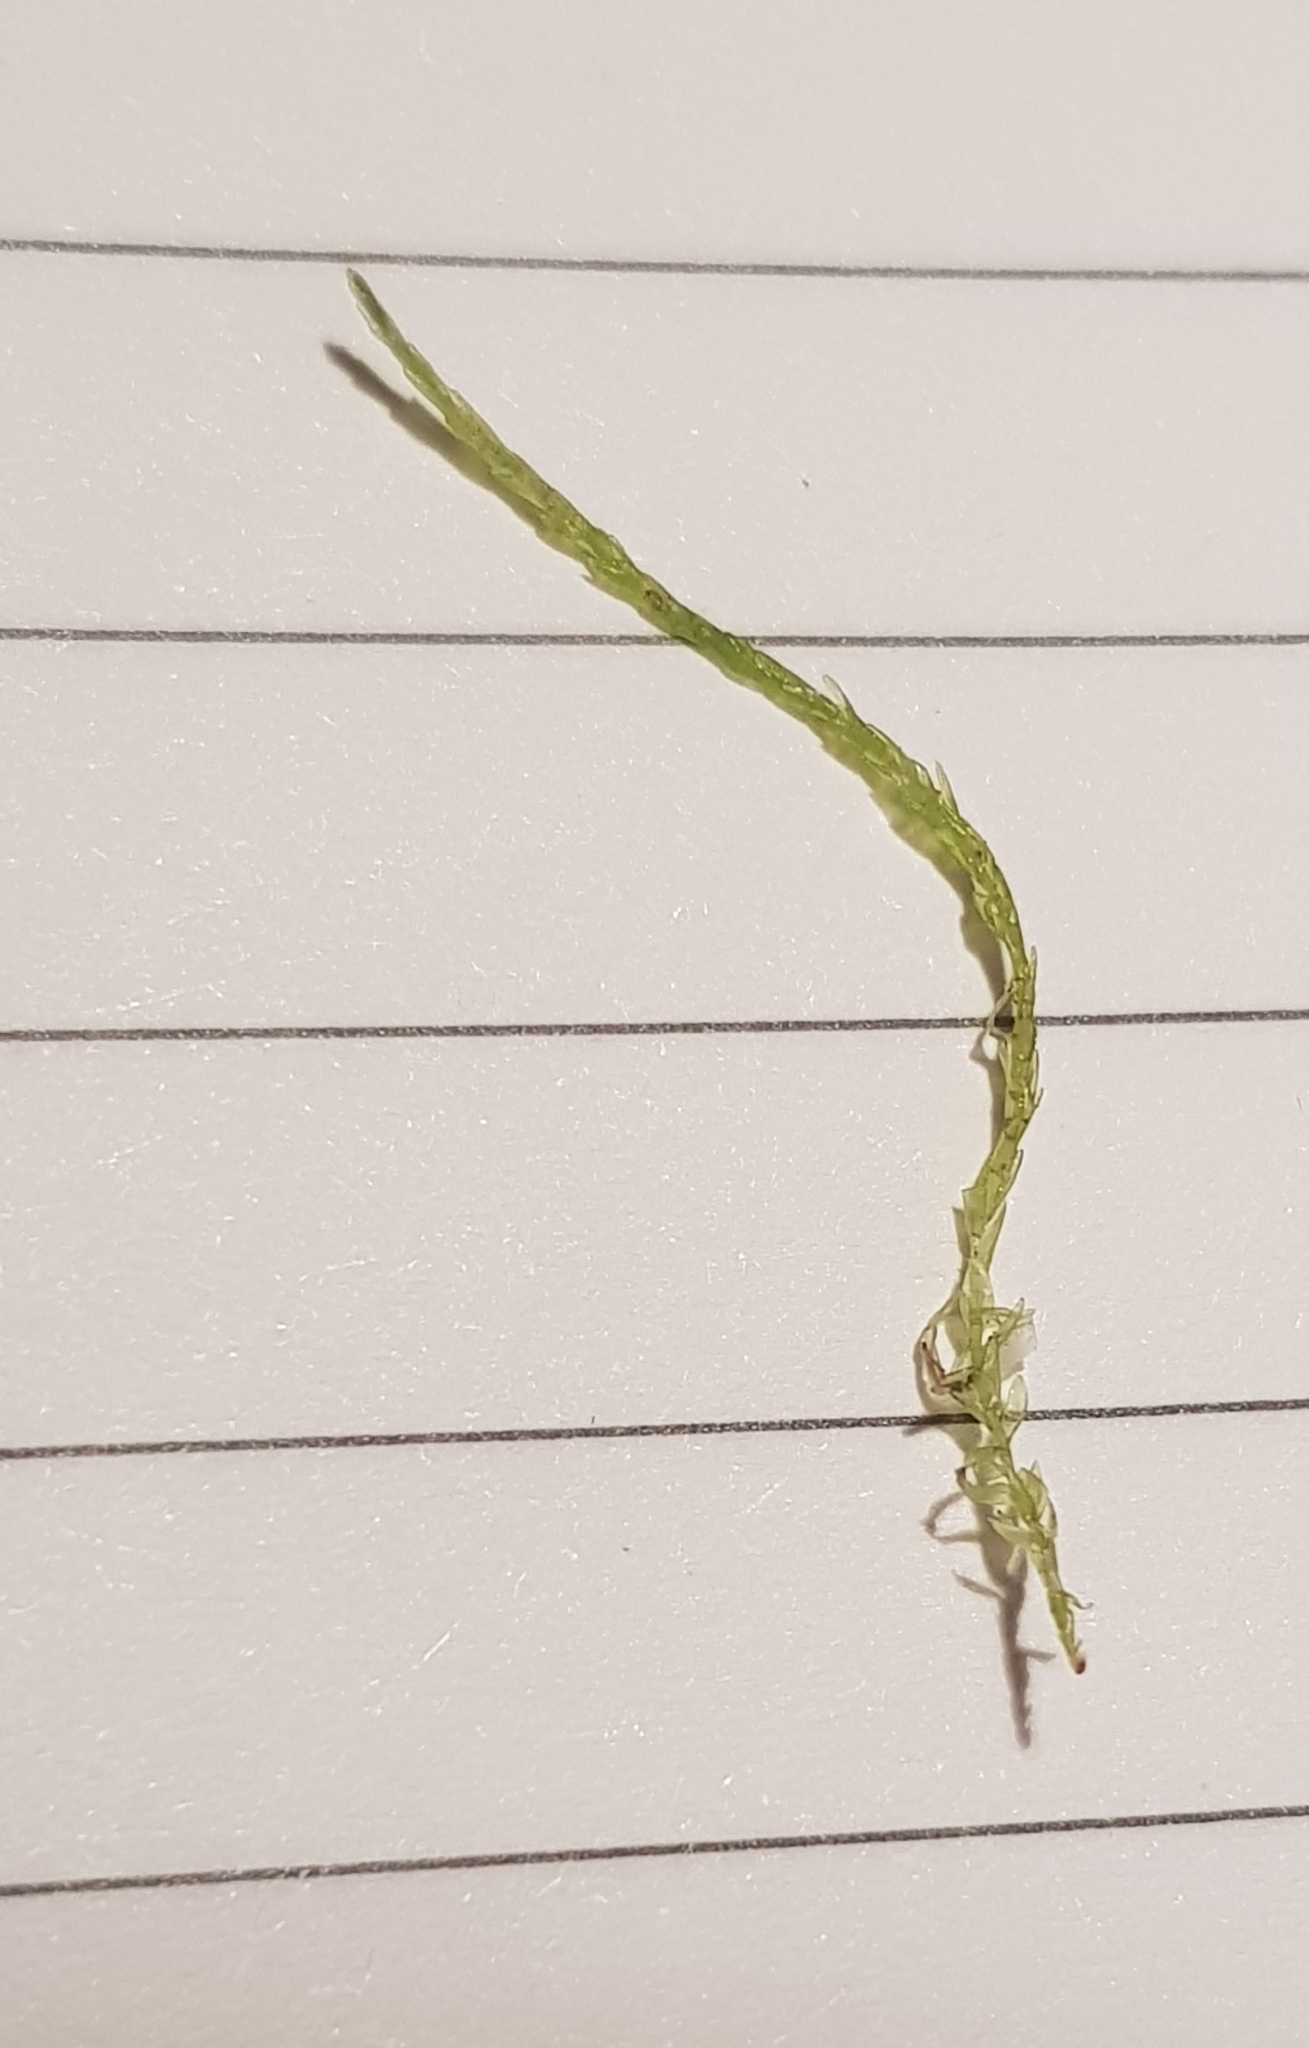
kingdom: Plantae
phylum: Bryophyta
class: Bryopsida
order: Hypnales
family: Calliergonaceae
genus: Straminergon
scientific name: Straminergon stramineum
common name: Straw moss
